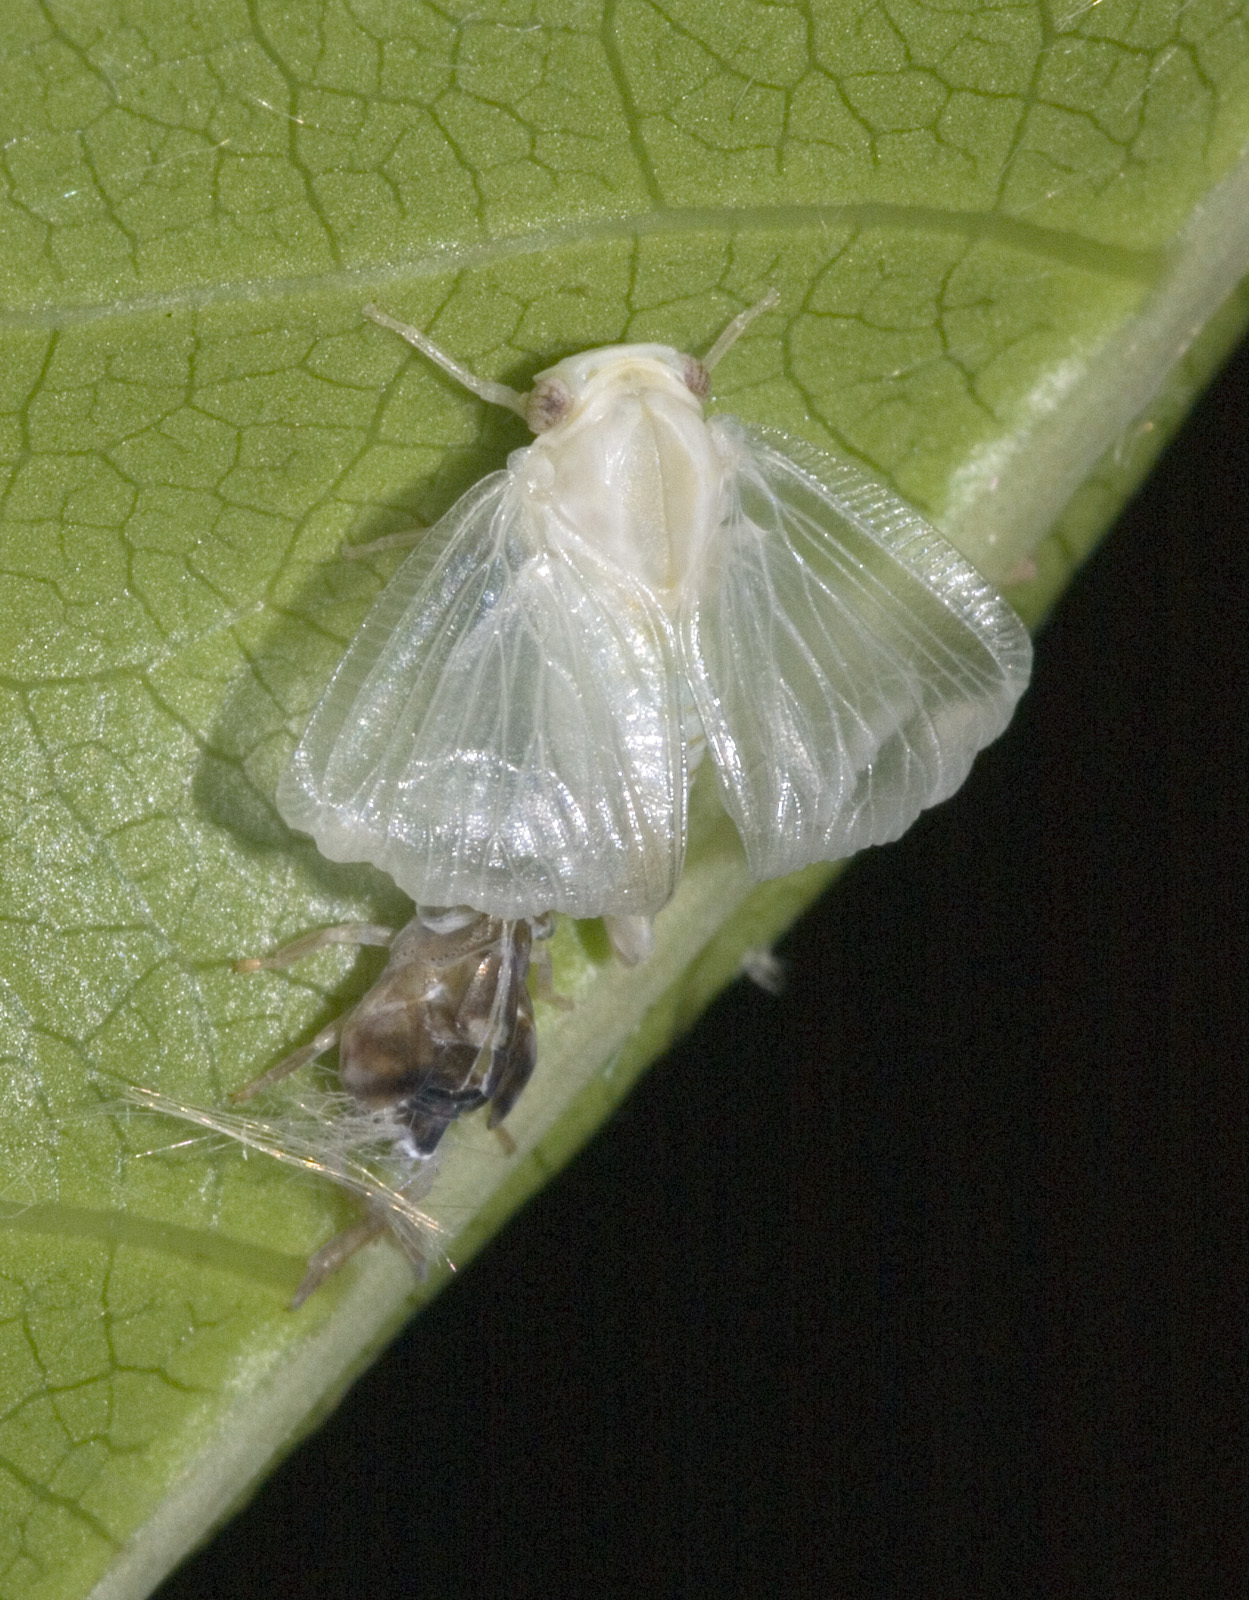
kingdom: Animalia
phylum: Arthropoda
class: Insecta
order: Hemiptera
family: Ricaniidae
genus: Scolypopa
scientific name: Scolypopa australis
